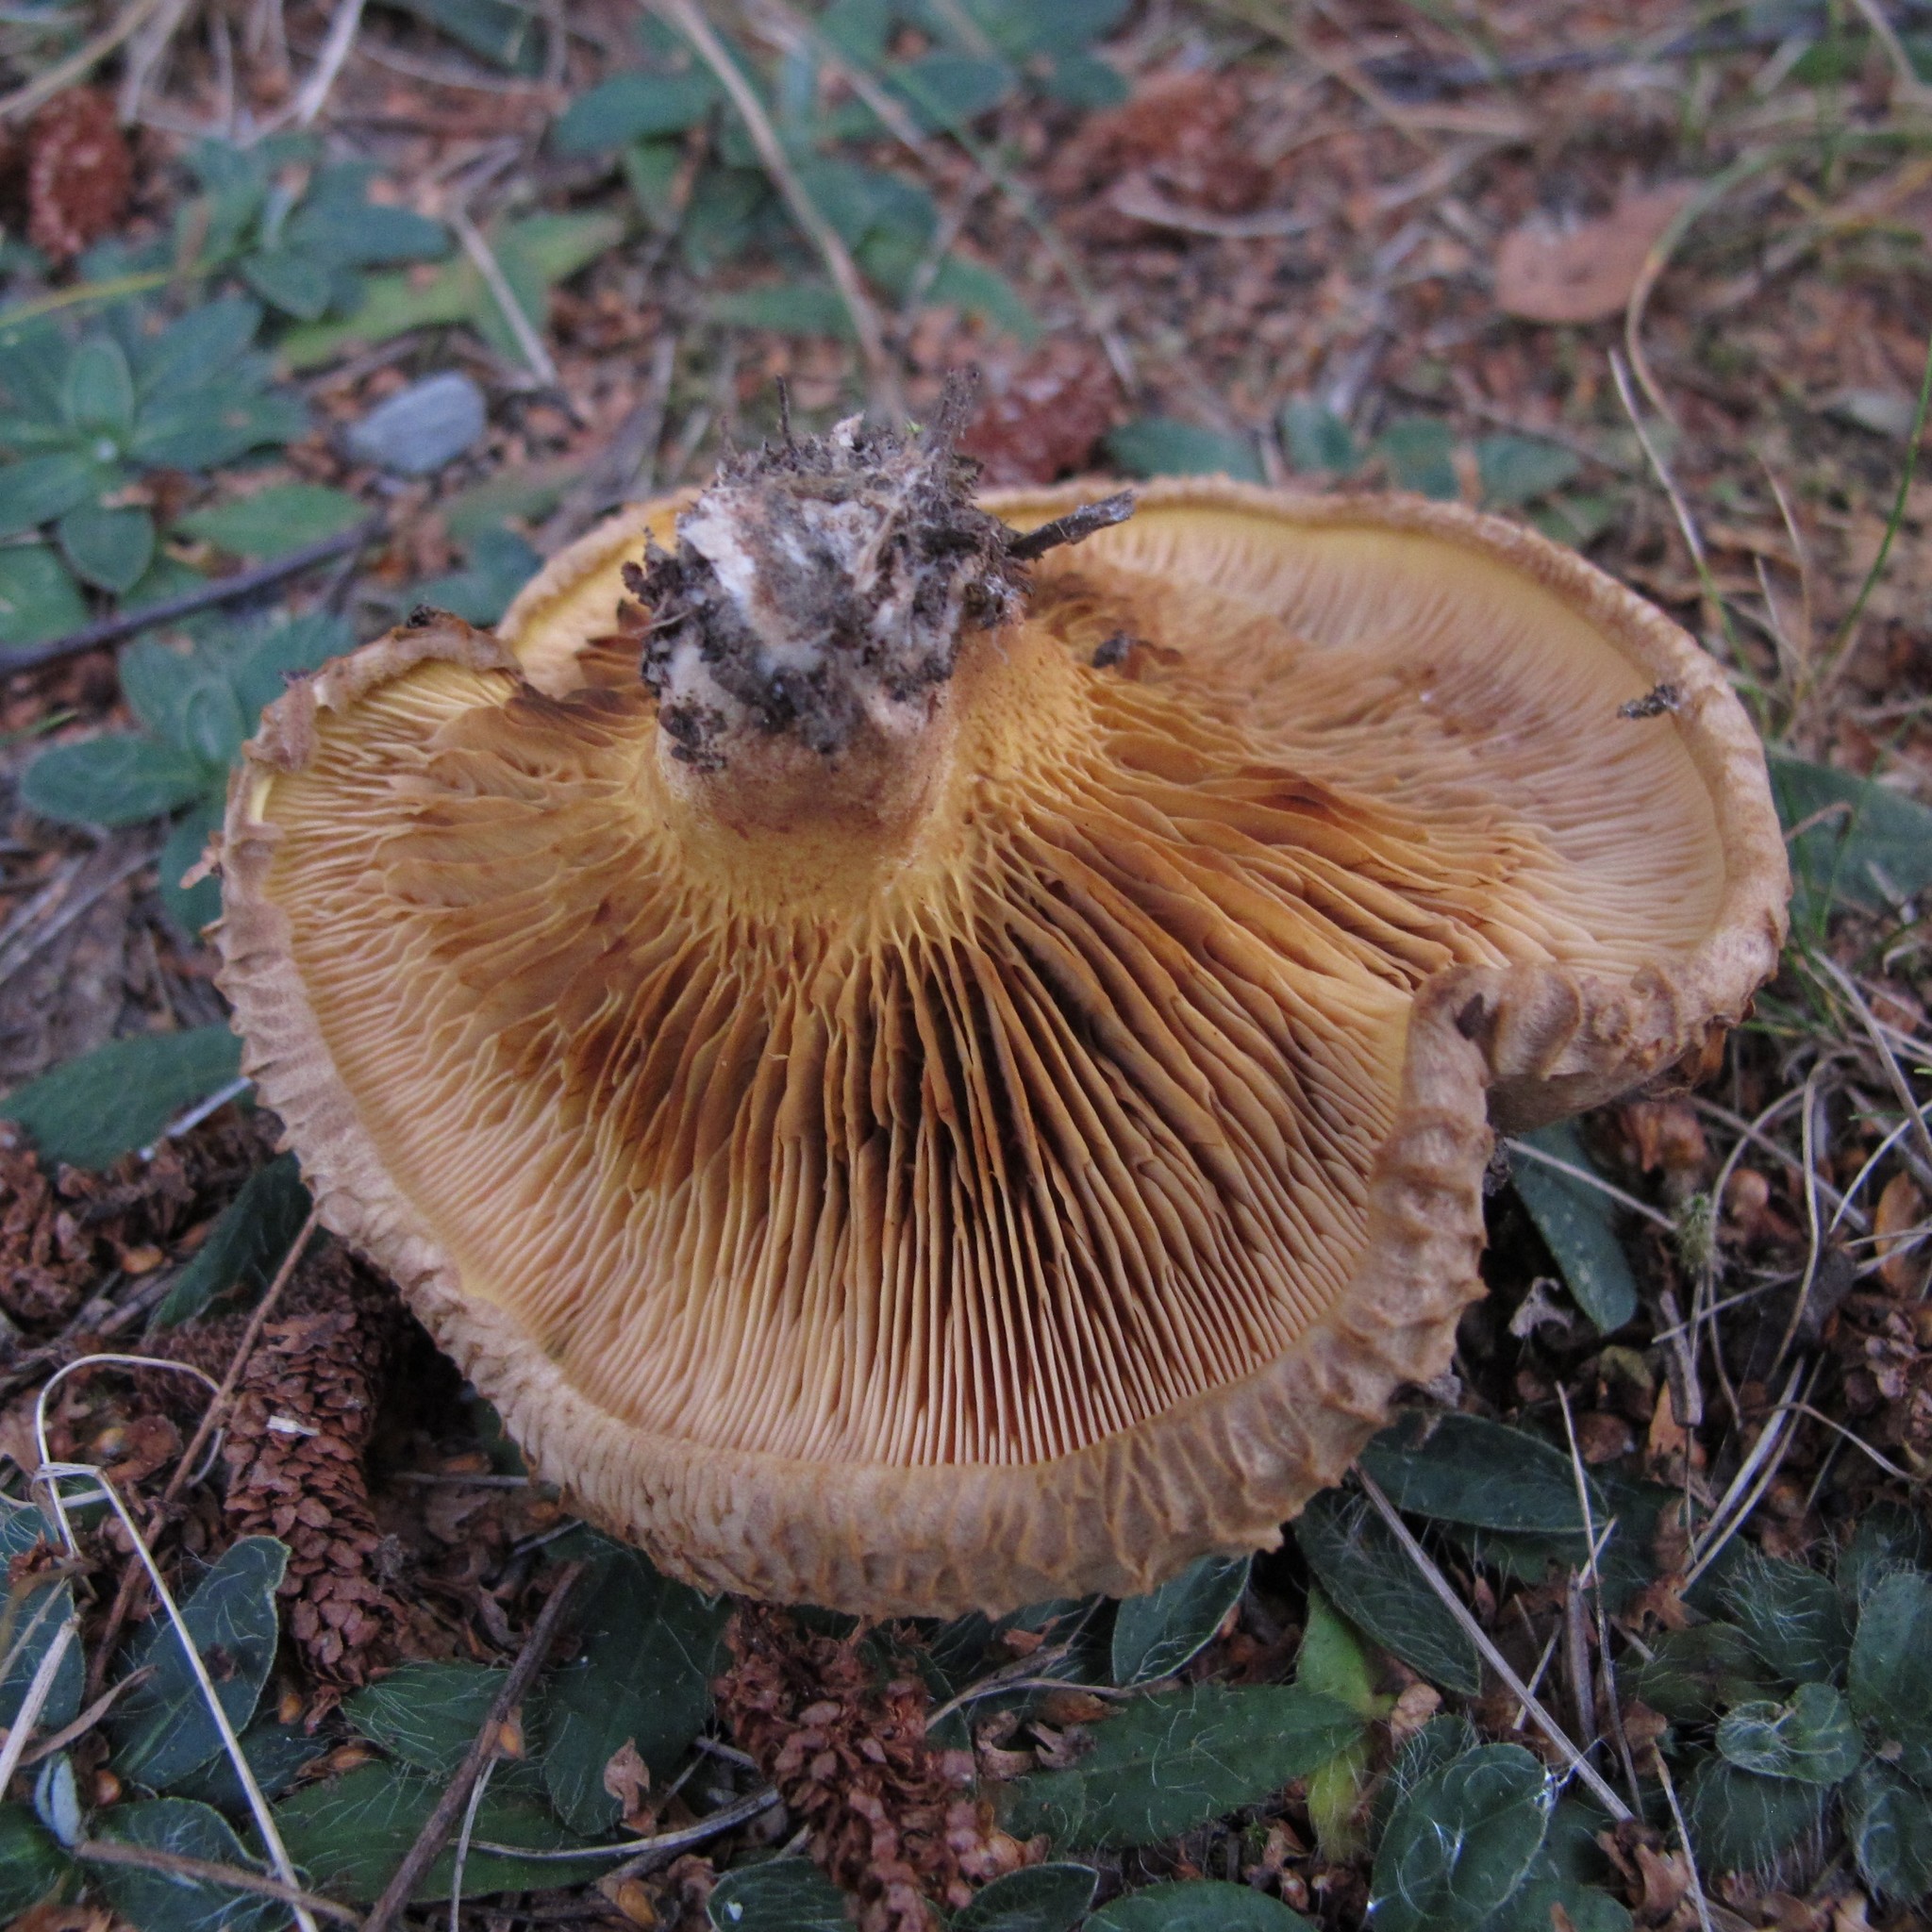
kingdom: Fungi
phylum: Basidiomycota
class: Agaricomycetes
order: Boletales
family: Paxillaceae
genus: Paxillus
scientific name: Paxillus involutus
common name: Brown roll rim
